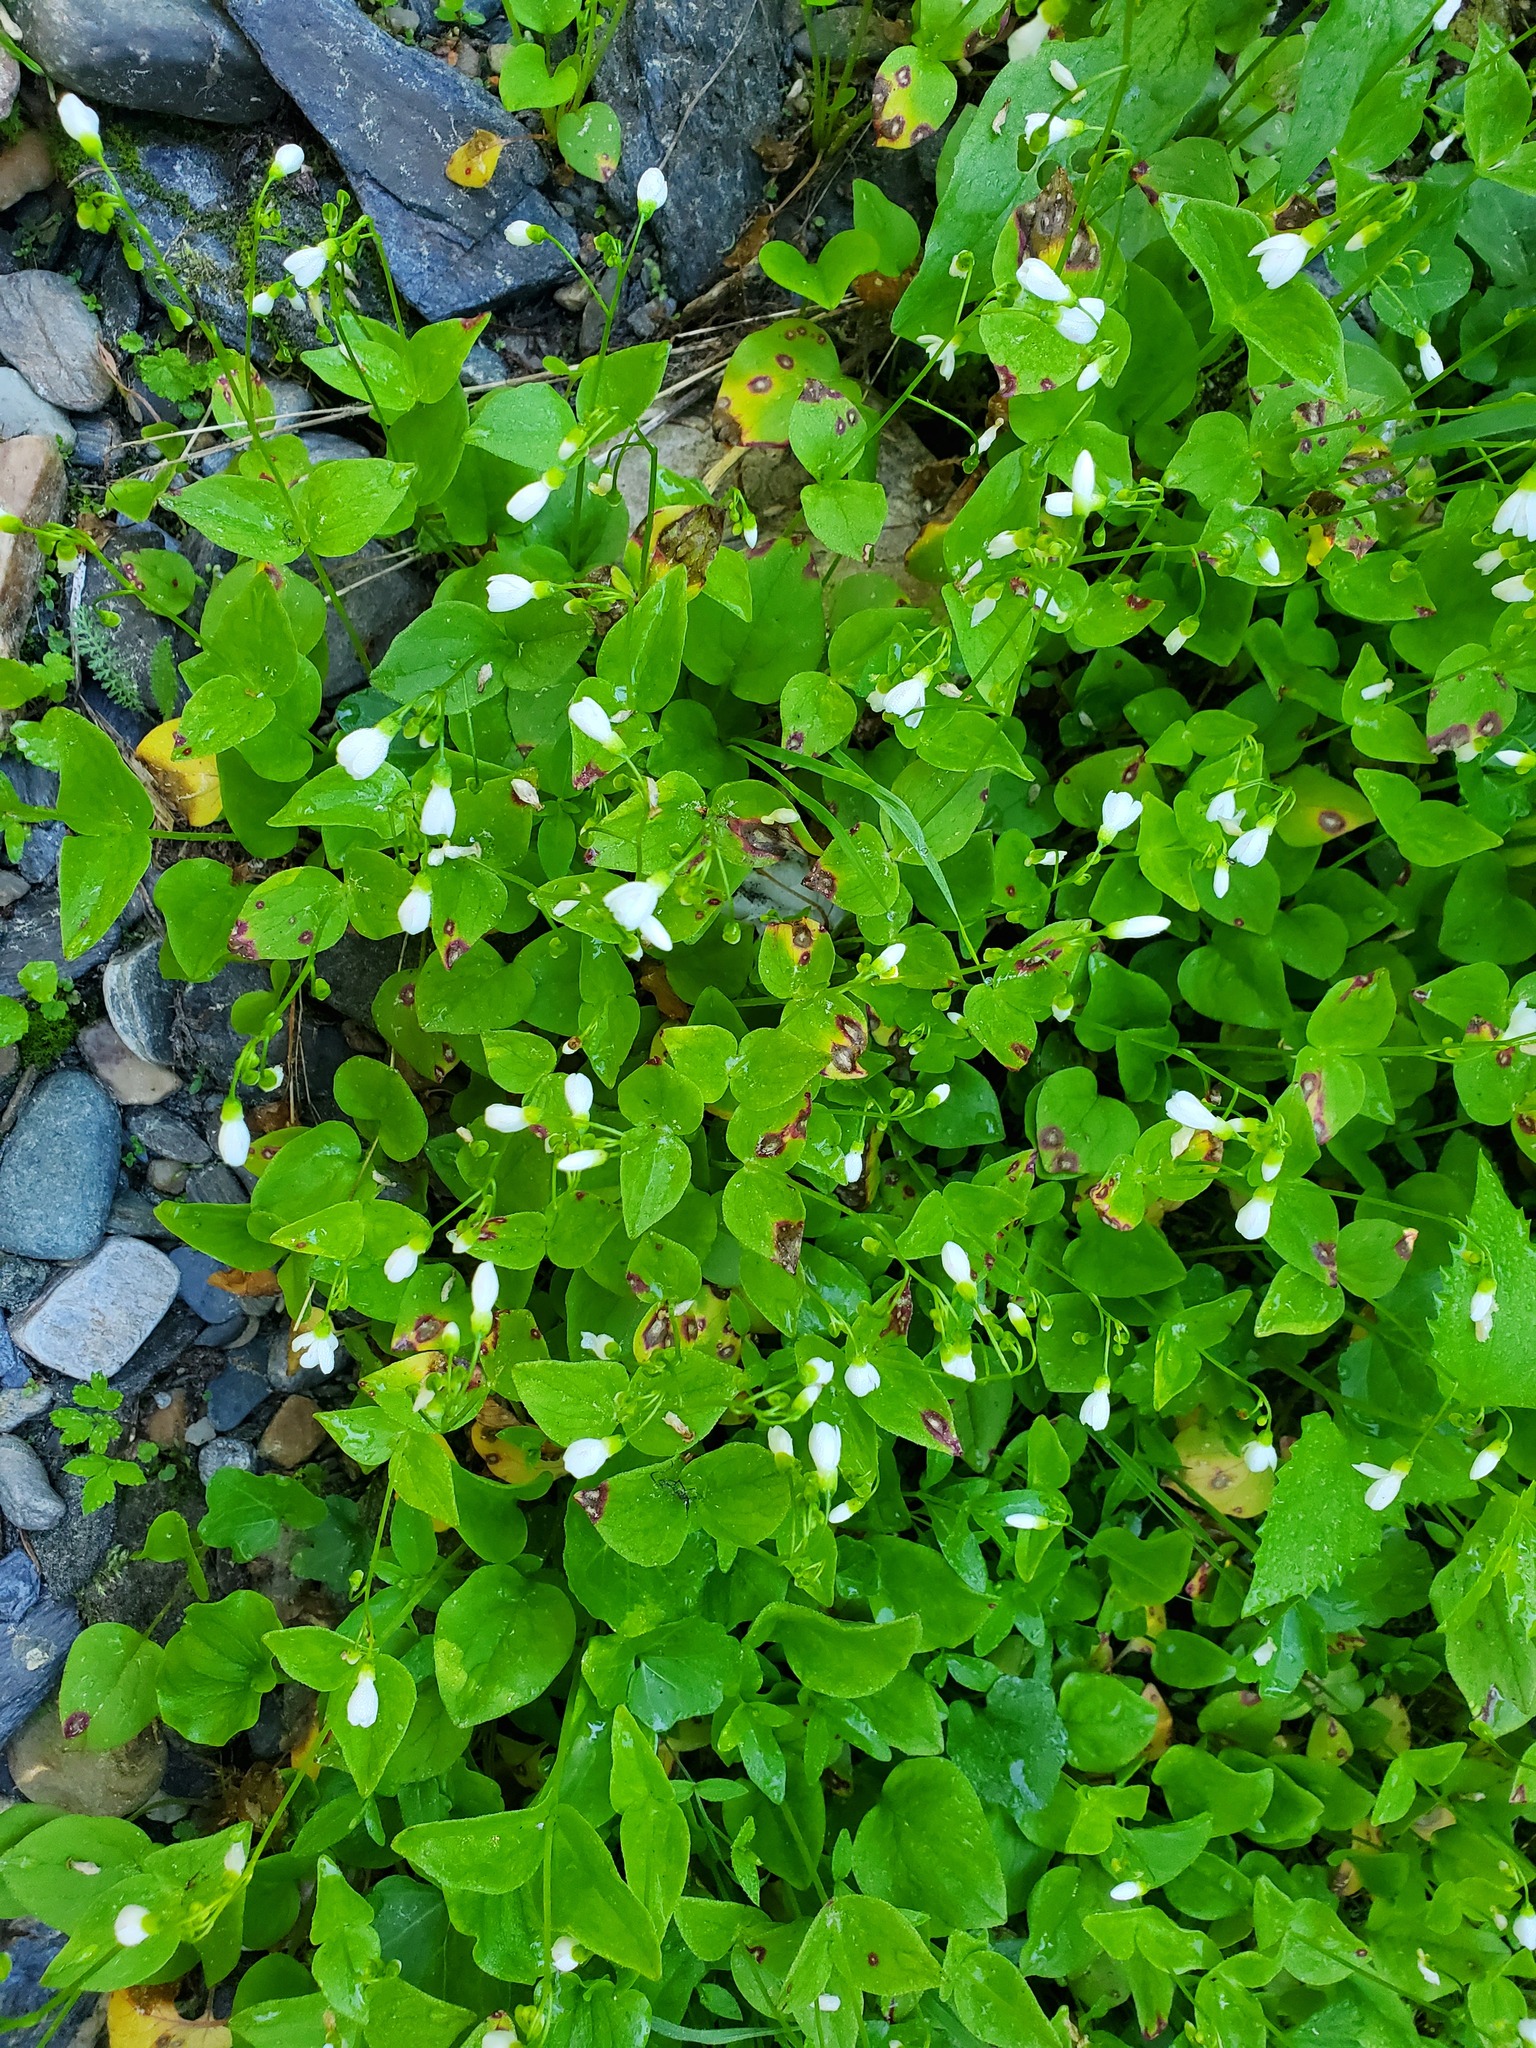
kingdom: Plantae
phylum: Tracheophyta
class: Magnoliopsida
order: Caryophyllales
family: Montiaceae
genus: Claytonia
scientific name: Claytonia cordifolia
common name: Broad-leaved spring beauty
